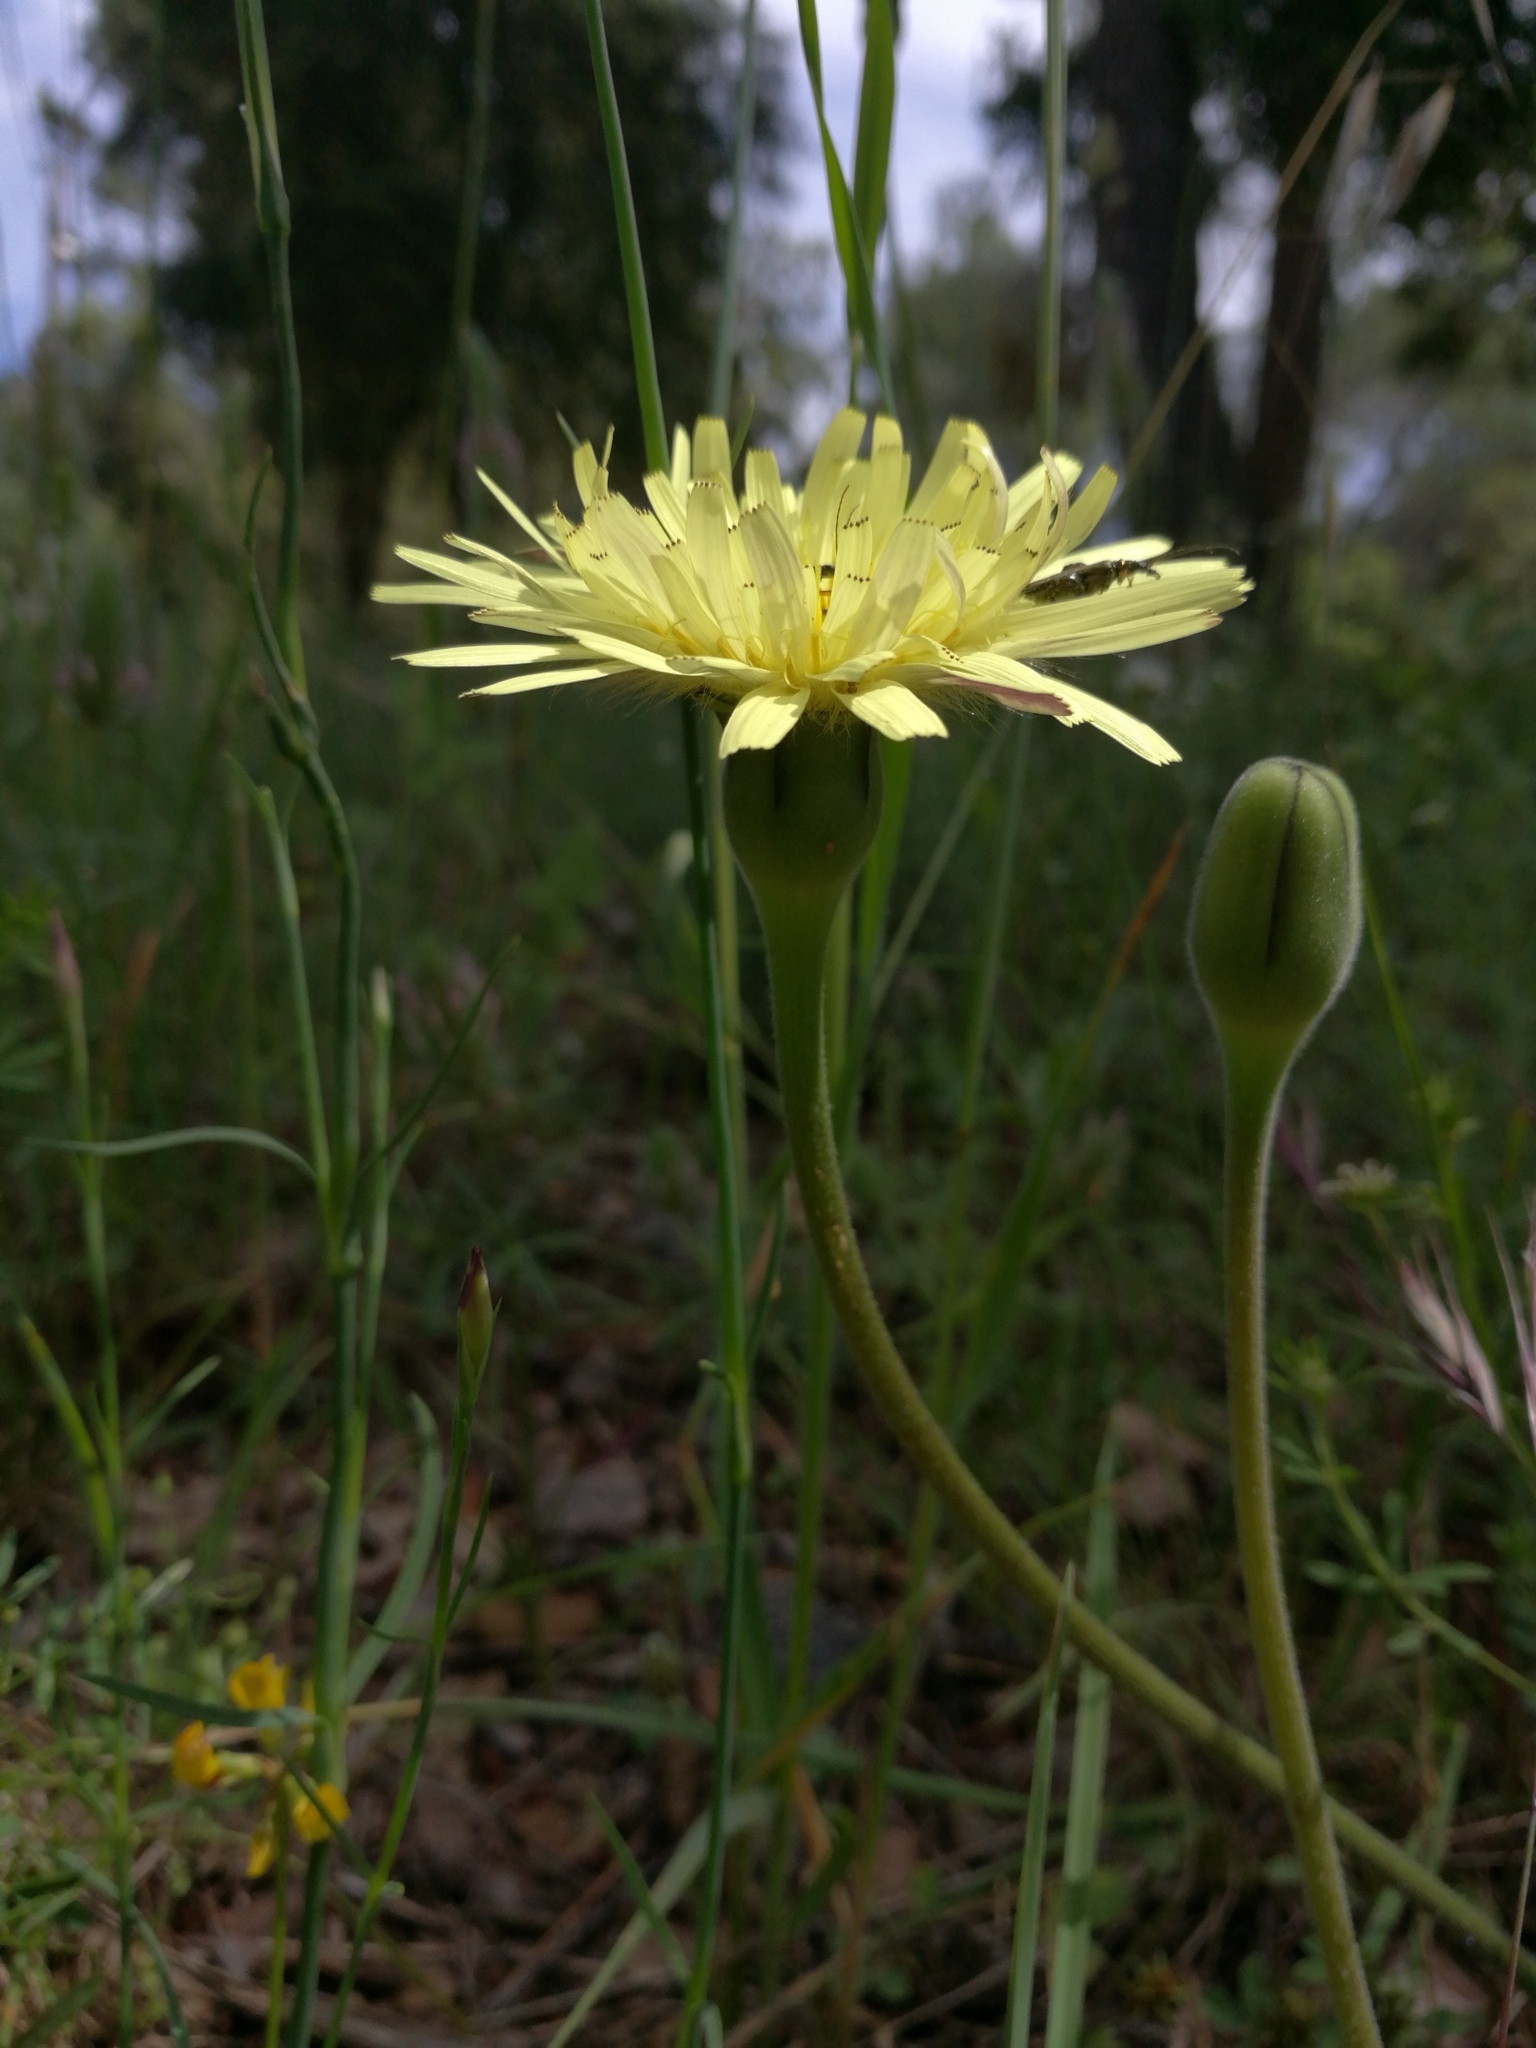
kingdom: Plantae
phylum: Tracheophyta
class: Magnoliopsida
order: Asterales
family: Asteraceae
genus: Urospermum
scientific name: Urospermum dalechampii
